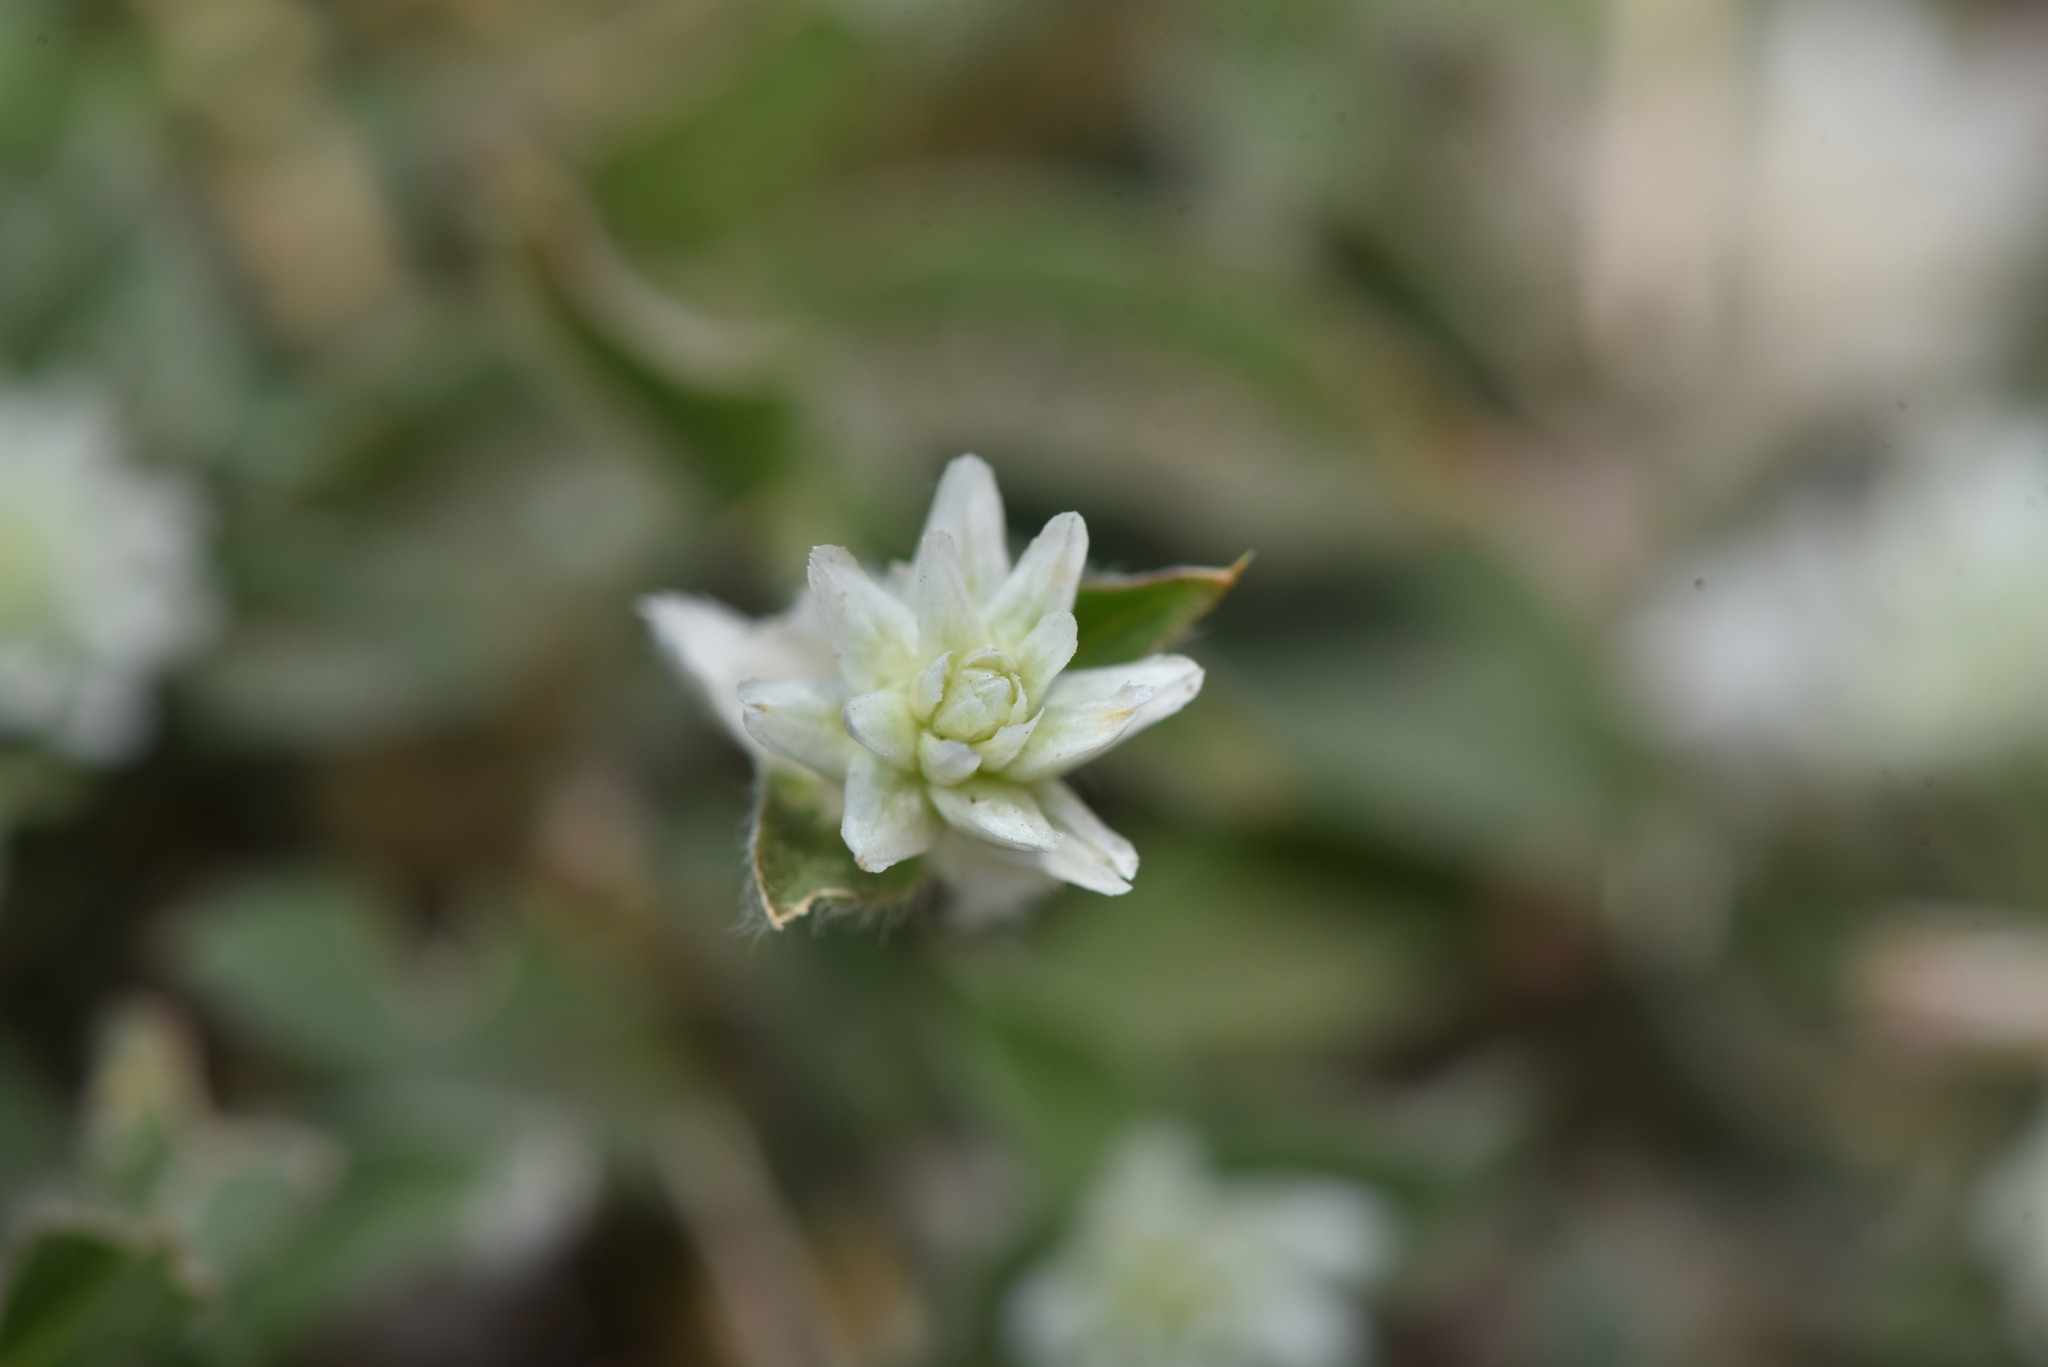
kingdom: Plantae
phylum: Tracheophyta
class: Magnoliopsida
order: Caryophyllales
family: Amaranthaceae
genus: Gomphrena
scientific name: Gomphrena serrata
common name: Arrasa con todo
